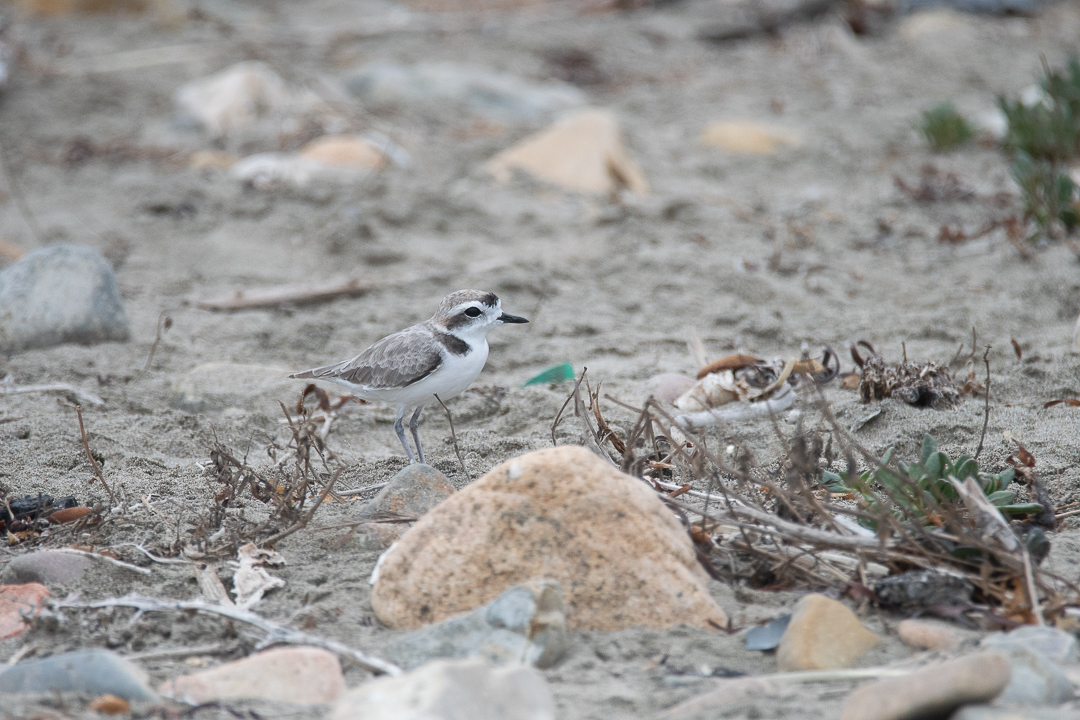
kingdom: Animalia
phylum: Chordata
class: Aves
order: Charadriiformes
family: Charadriidae
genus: Anarhynchus
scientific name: Anarhynchus
